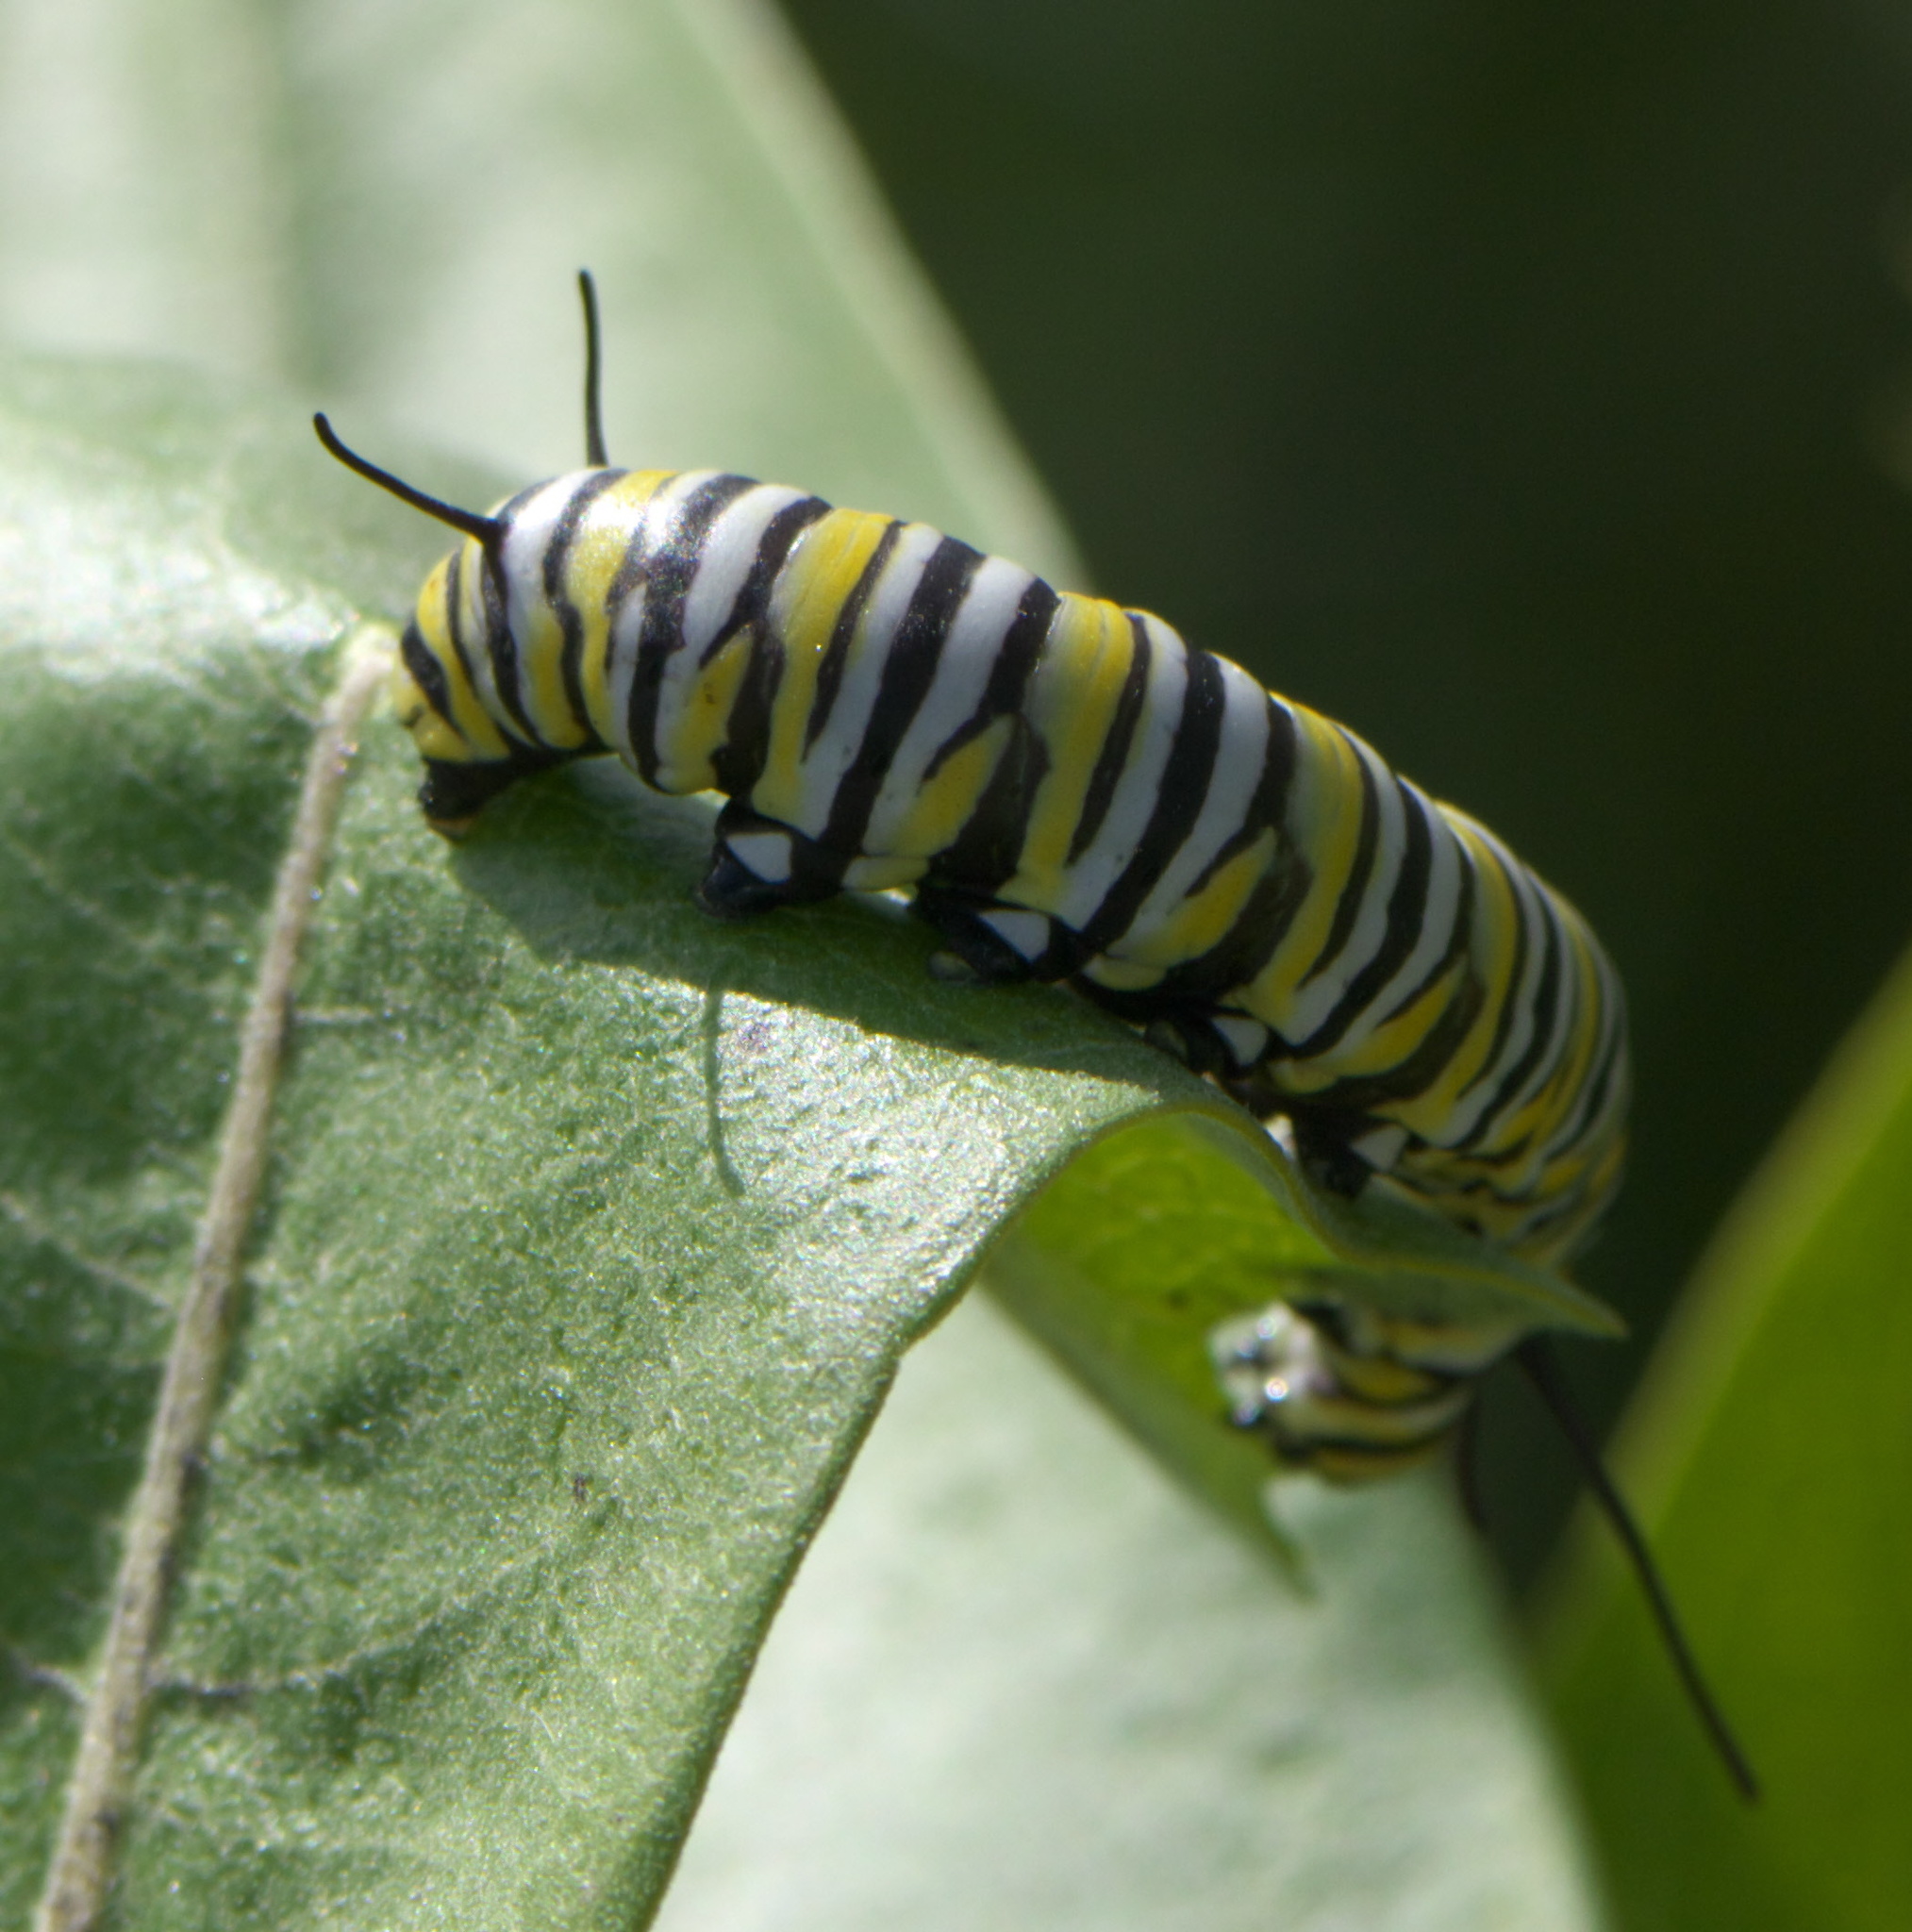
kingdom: Animalia
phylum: Arthropoda
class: Insecta
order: Lepidoptera
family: Nymphalidae
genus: Danaus
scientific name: Danaus plexippus
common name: Monarch
